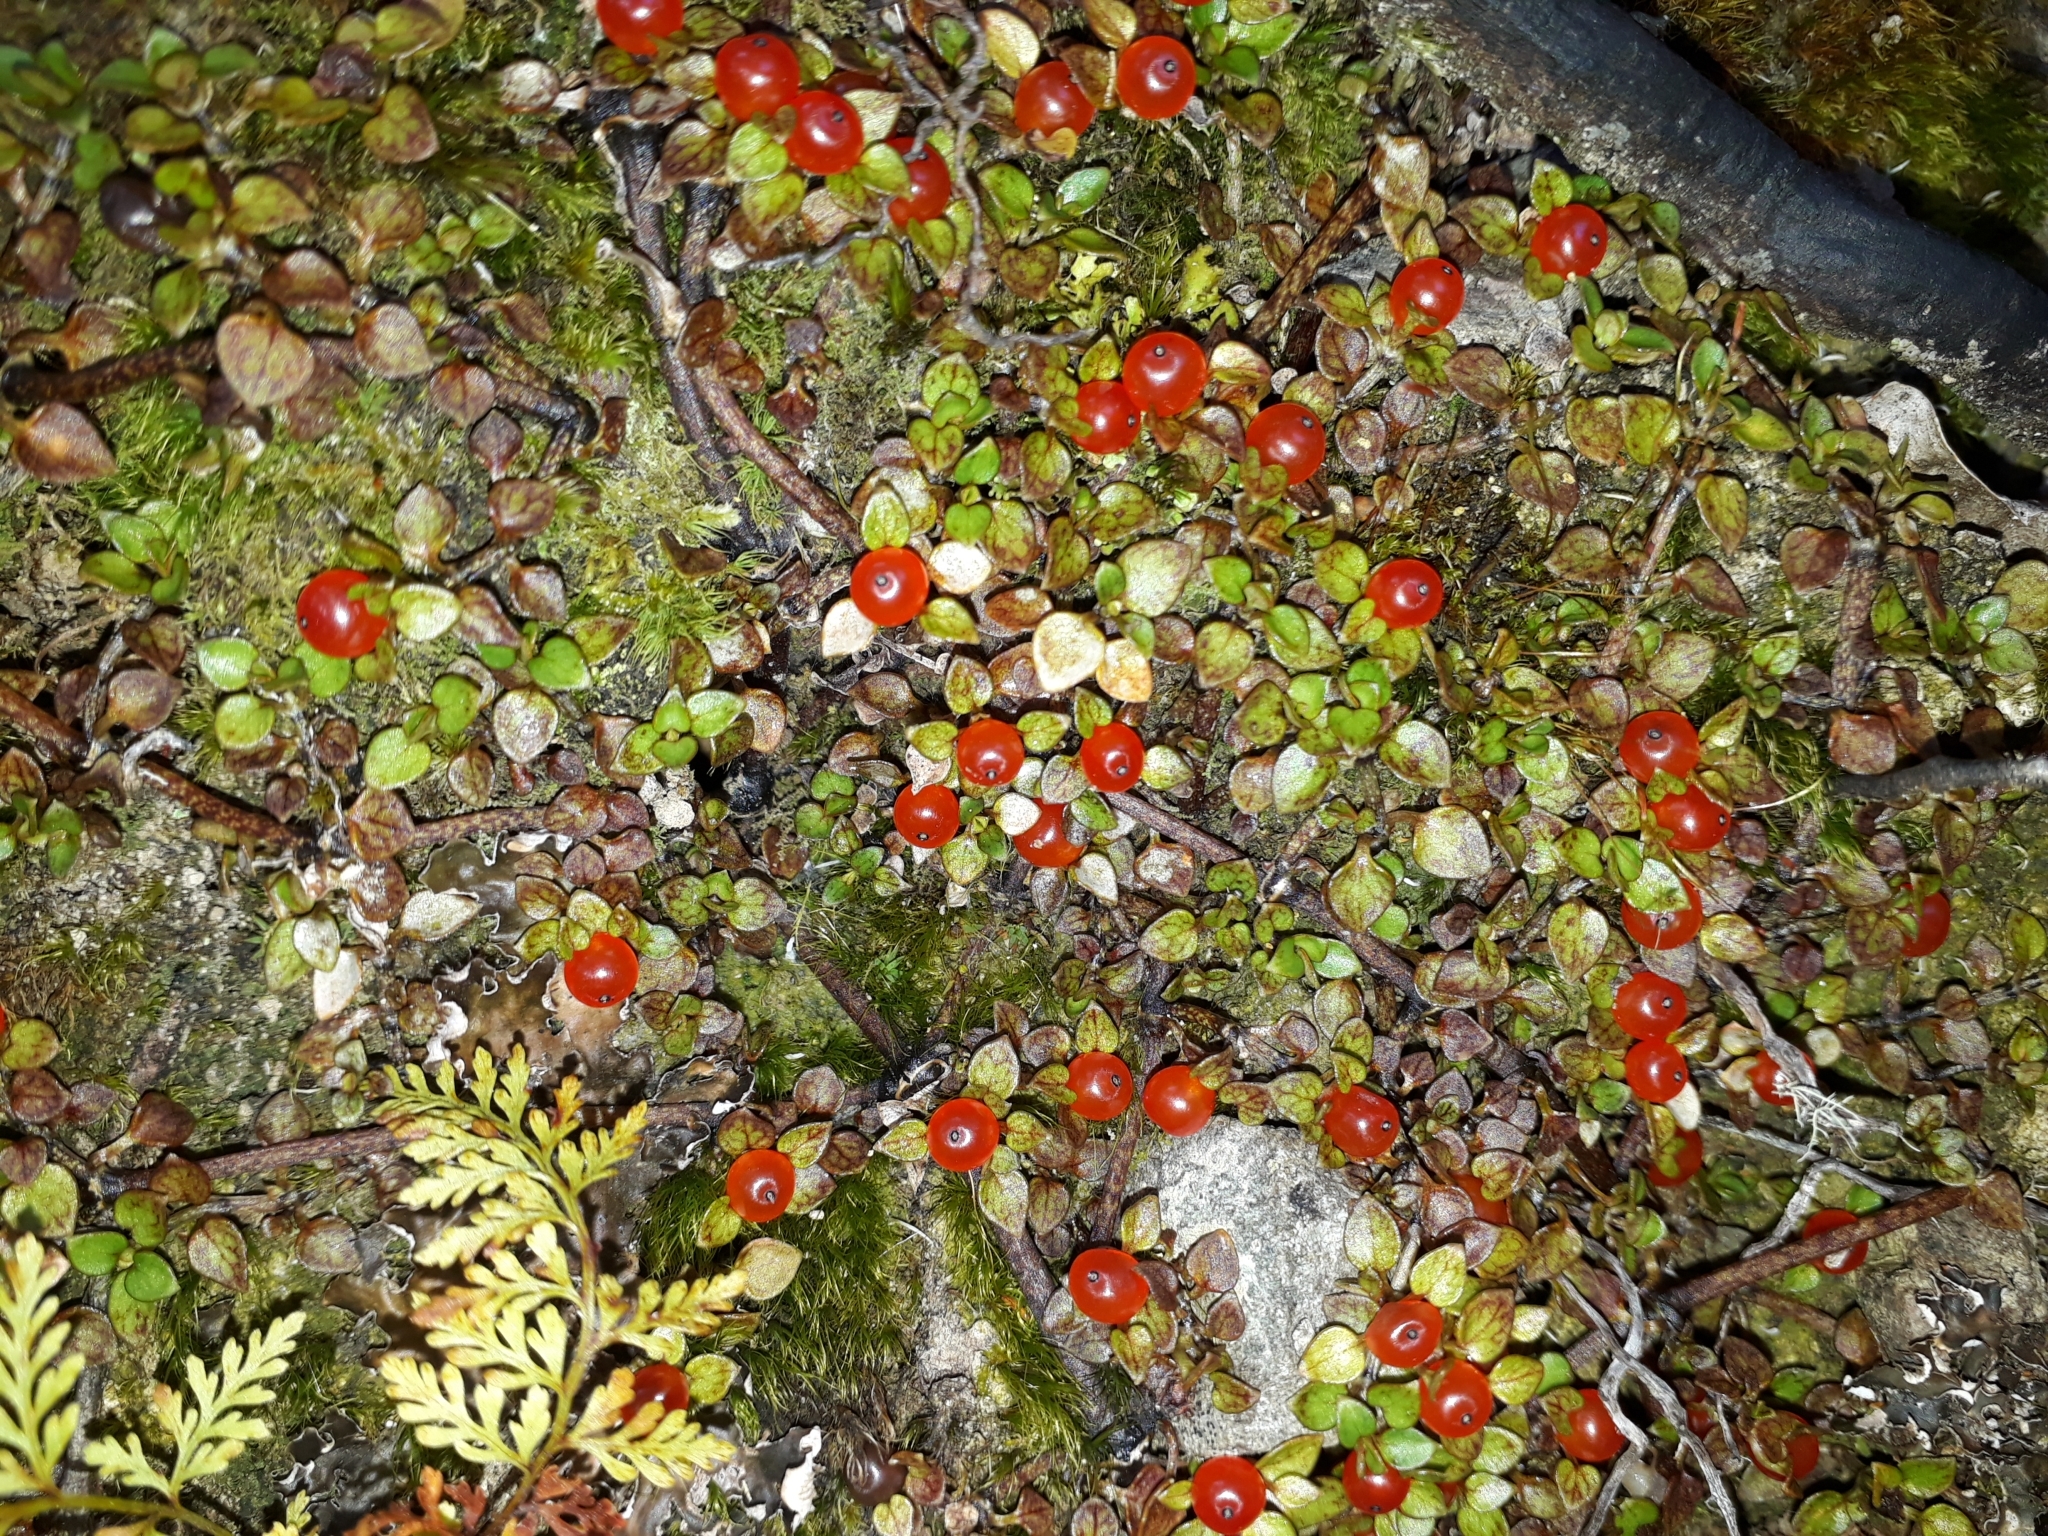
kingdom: Plantae
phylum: Tracheophyta
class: Magnoliopsida
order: Gentianales
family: Rubiaceae
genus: Nertera
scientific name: Nertera granadensis
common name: Beadplant
